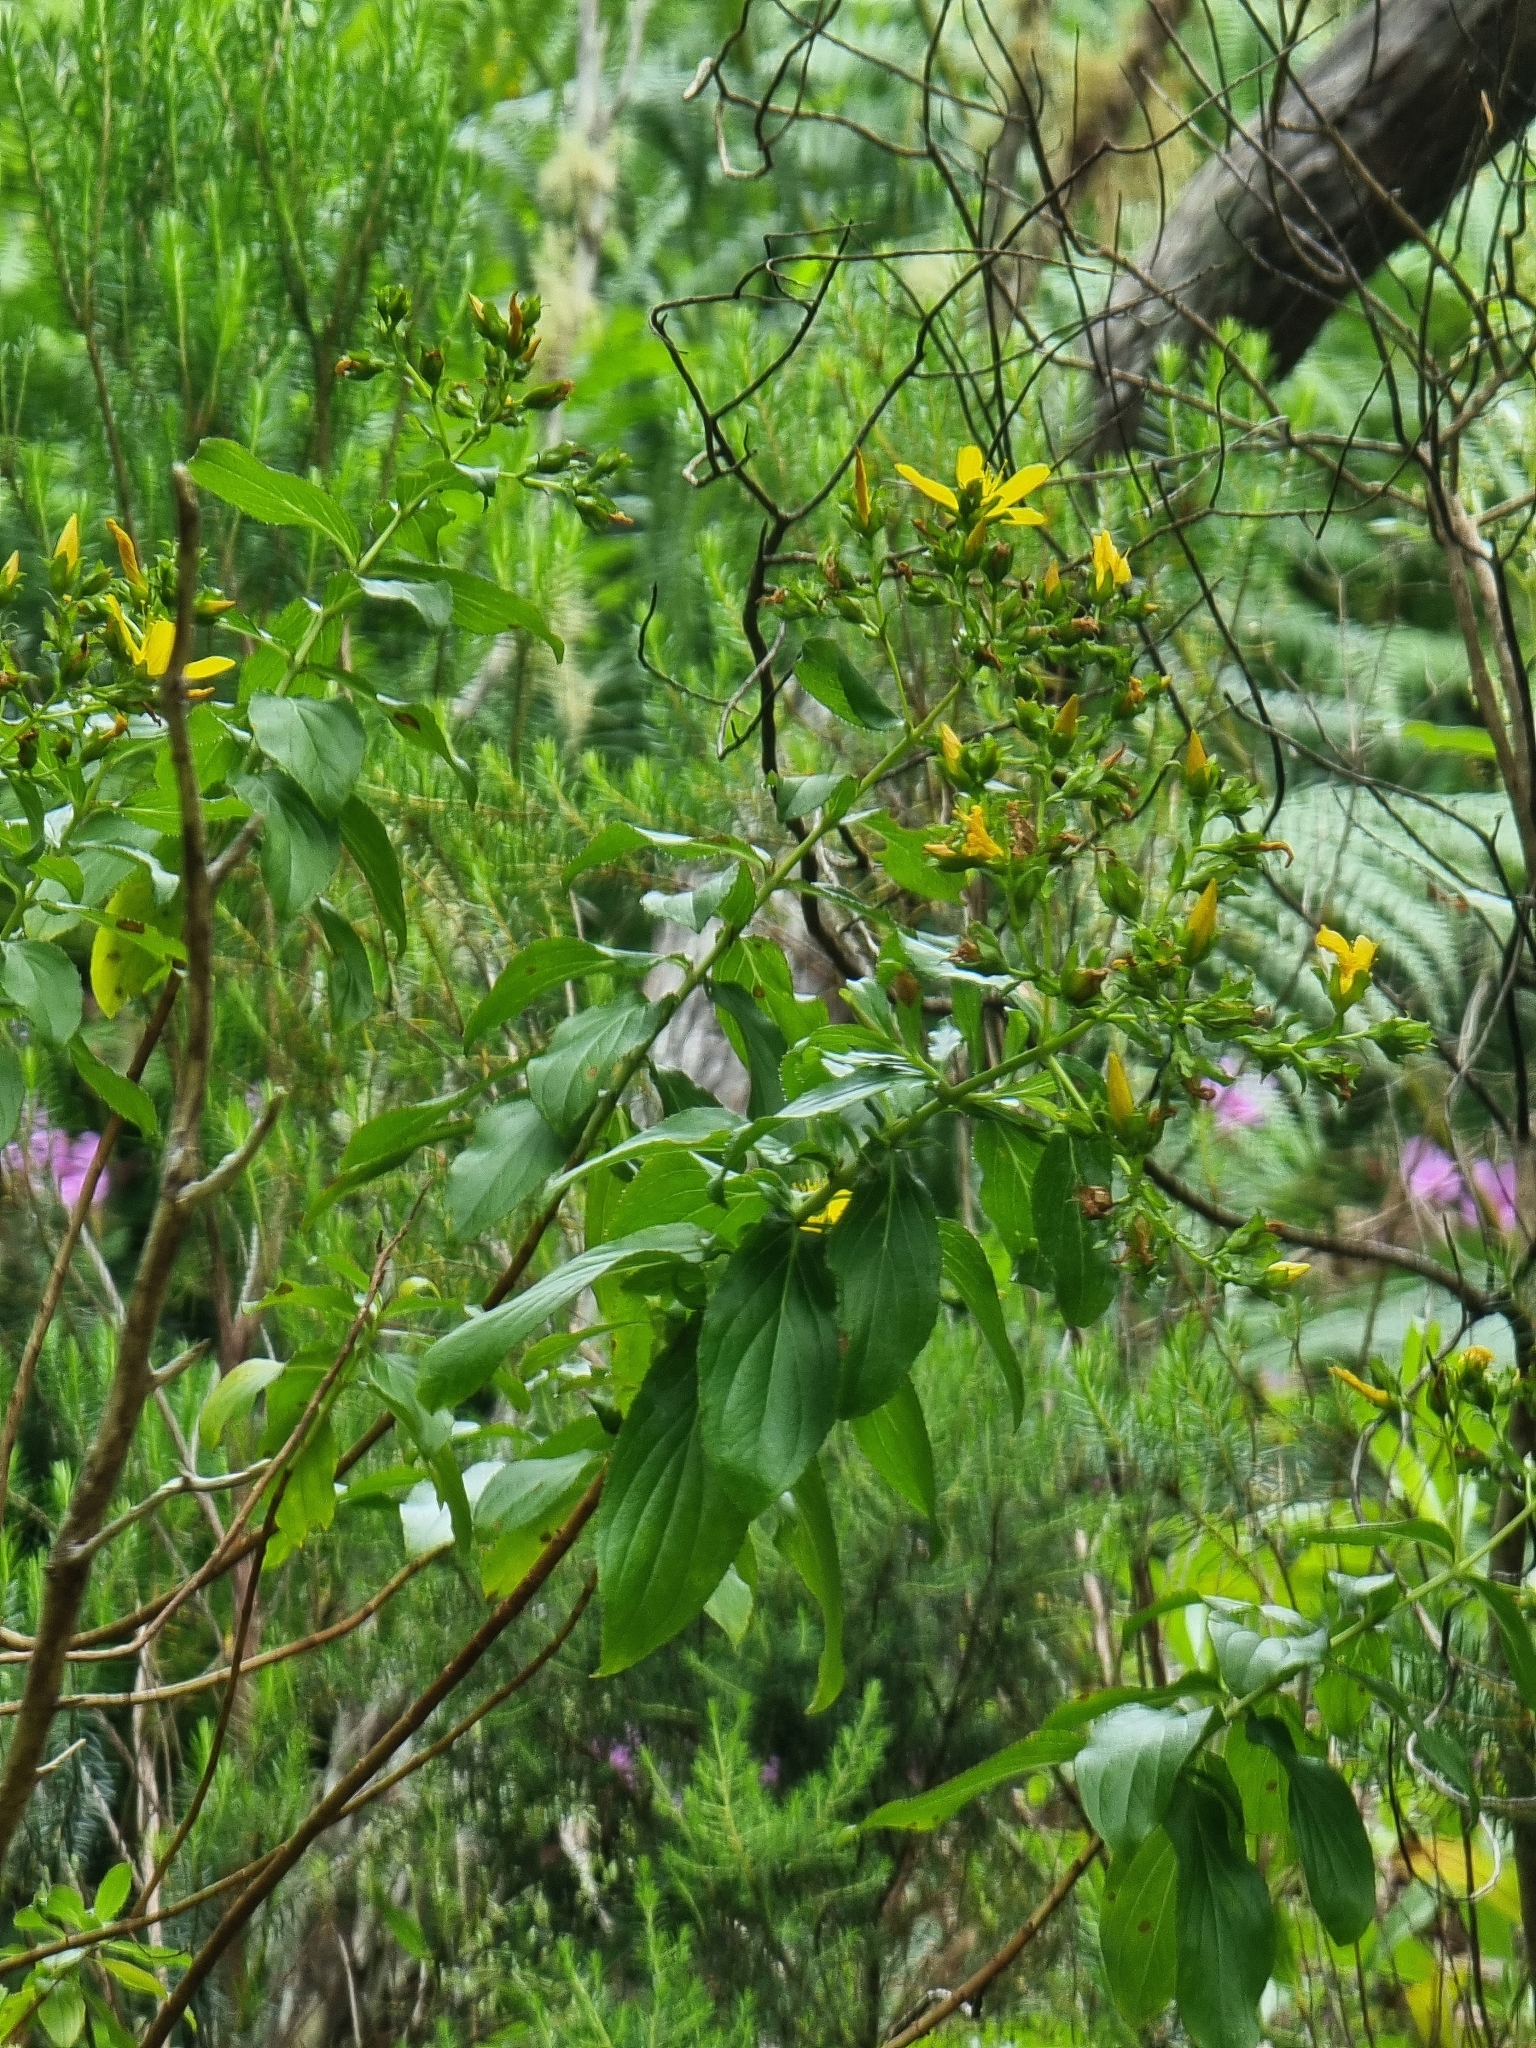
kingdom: Plantae
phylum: Tracheophyta
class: Magnoliopsida
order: Malpighiales
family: Hypericaceae
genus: Hypericum
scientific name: Hypericum glandulosum
